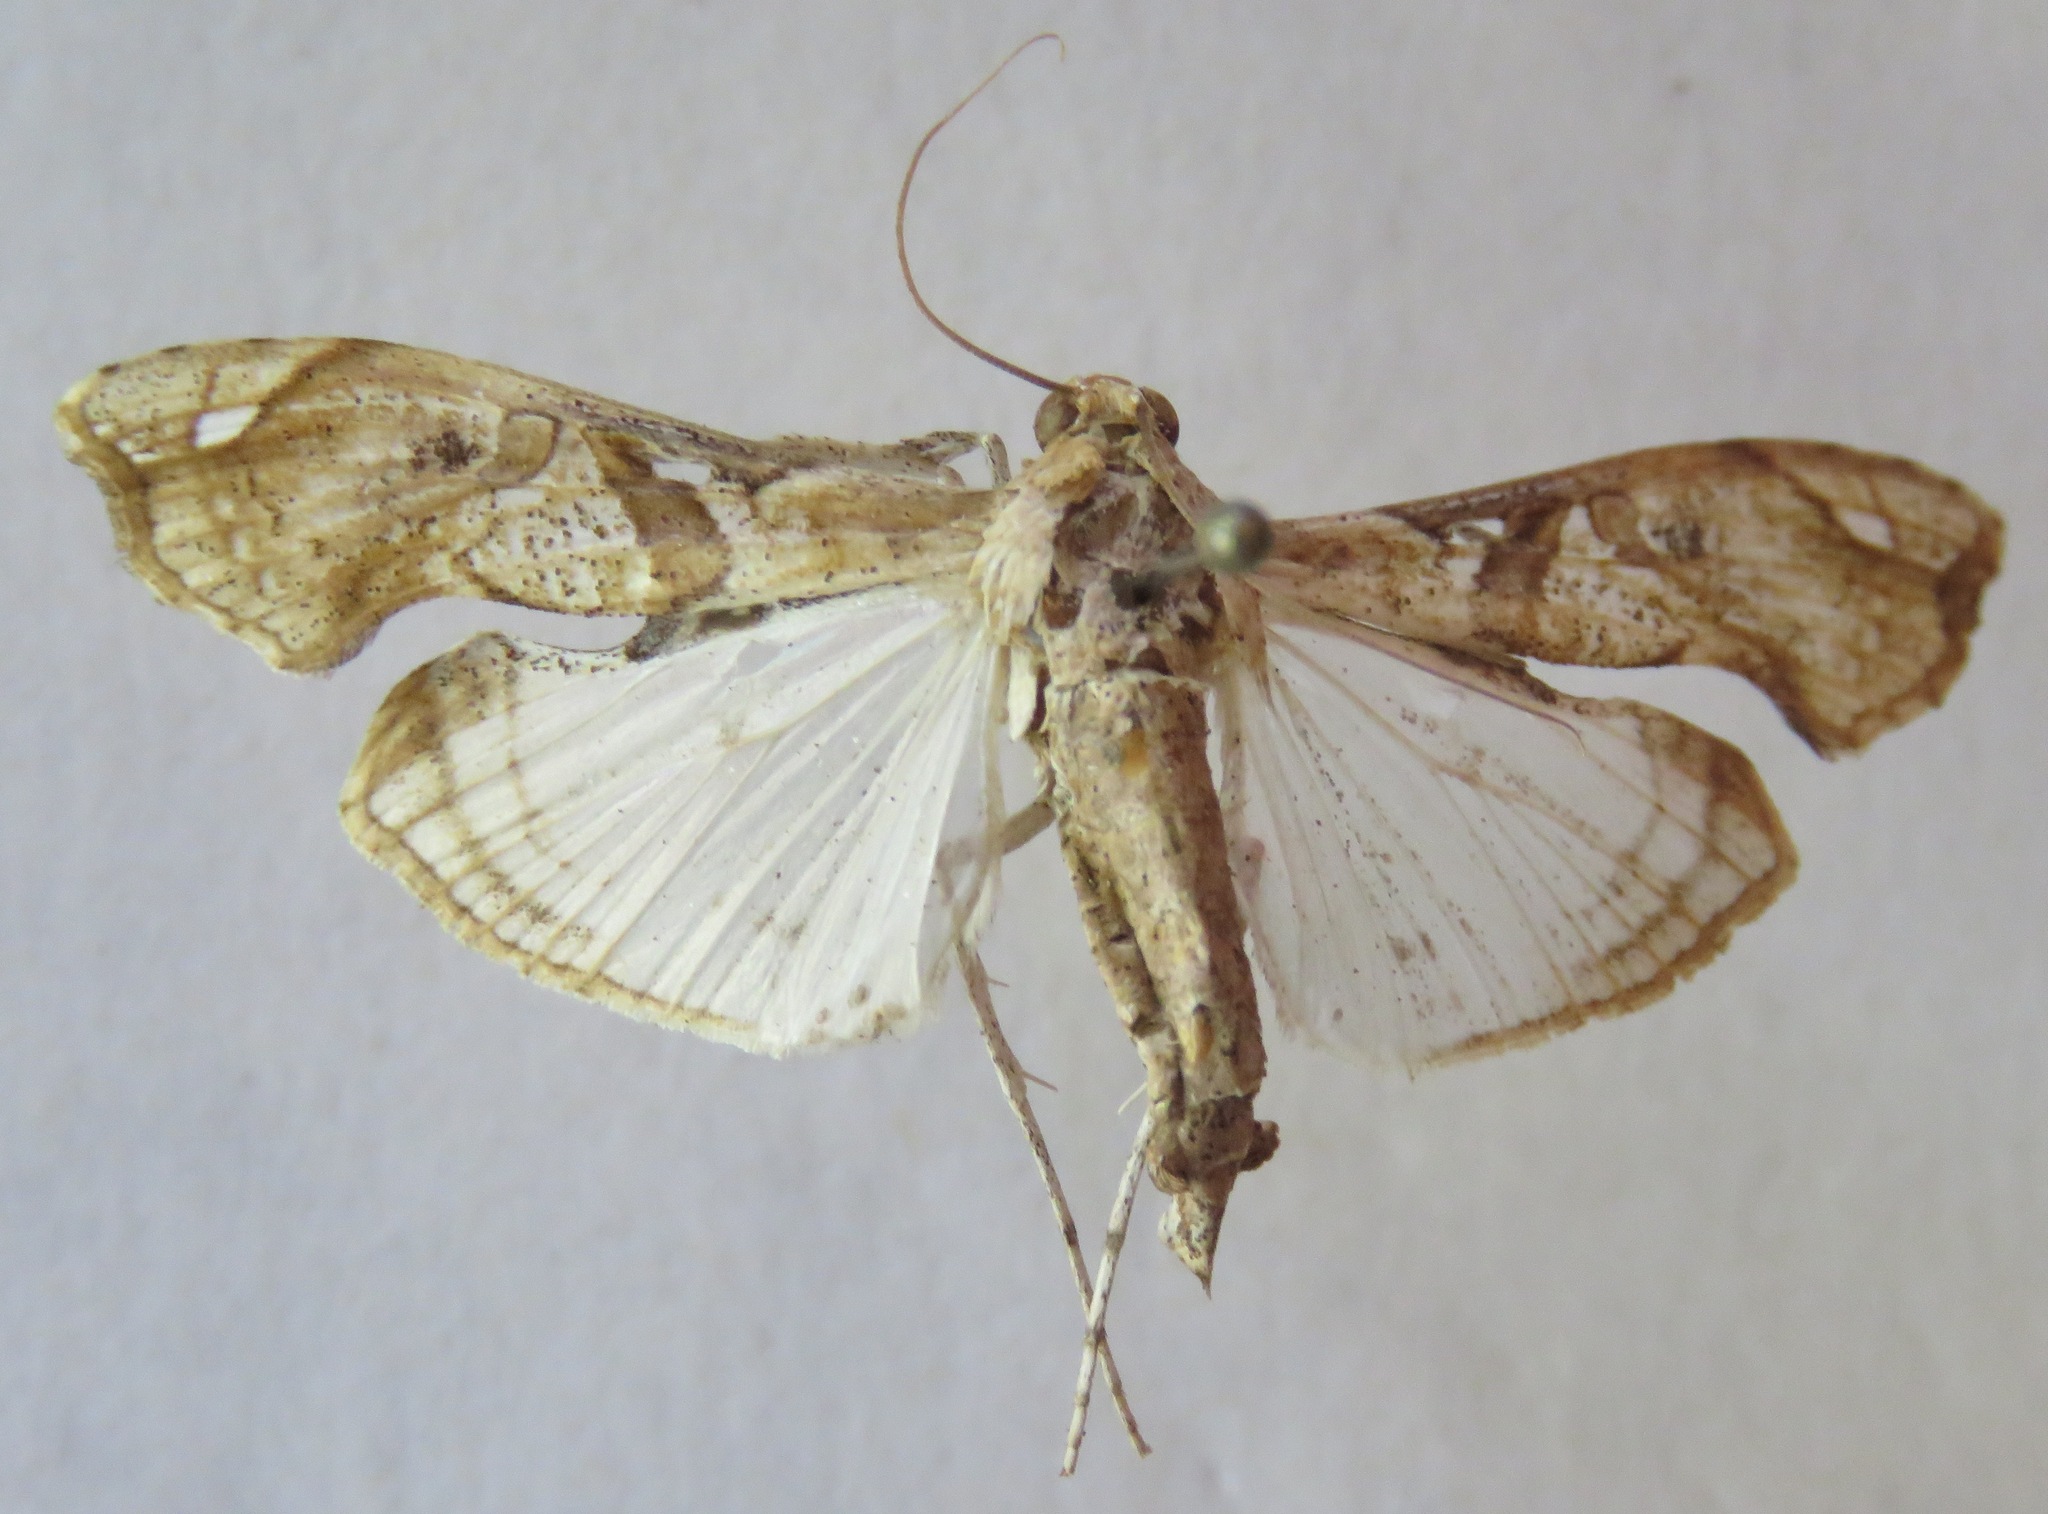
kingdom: Animalia
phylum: Arthropoda
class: Insecta
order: Lepidoptera
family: Crambidae
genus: Terastia
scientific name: Terastia meticulosalis
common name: Moth
